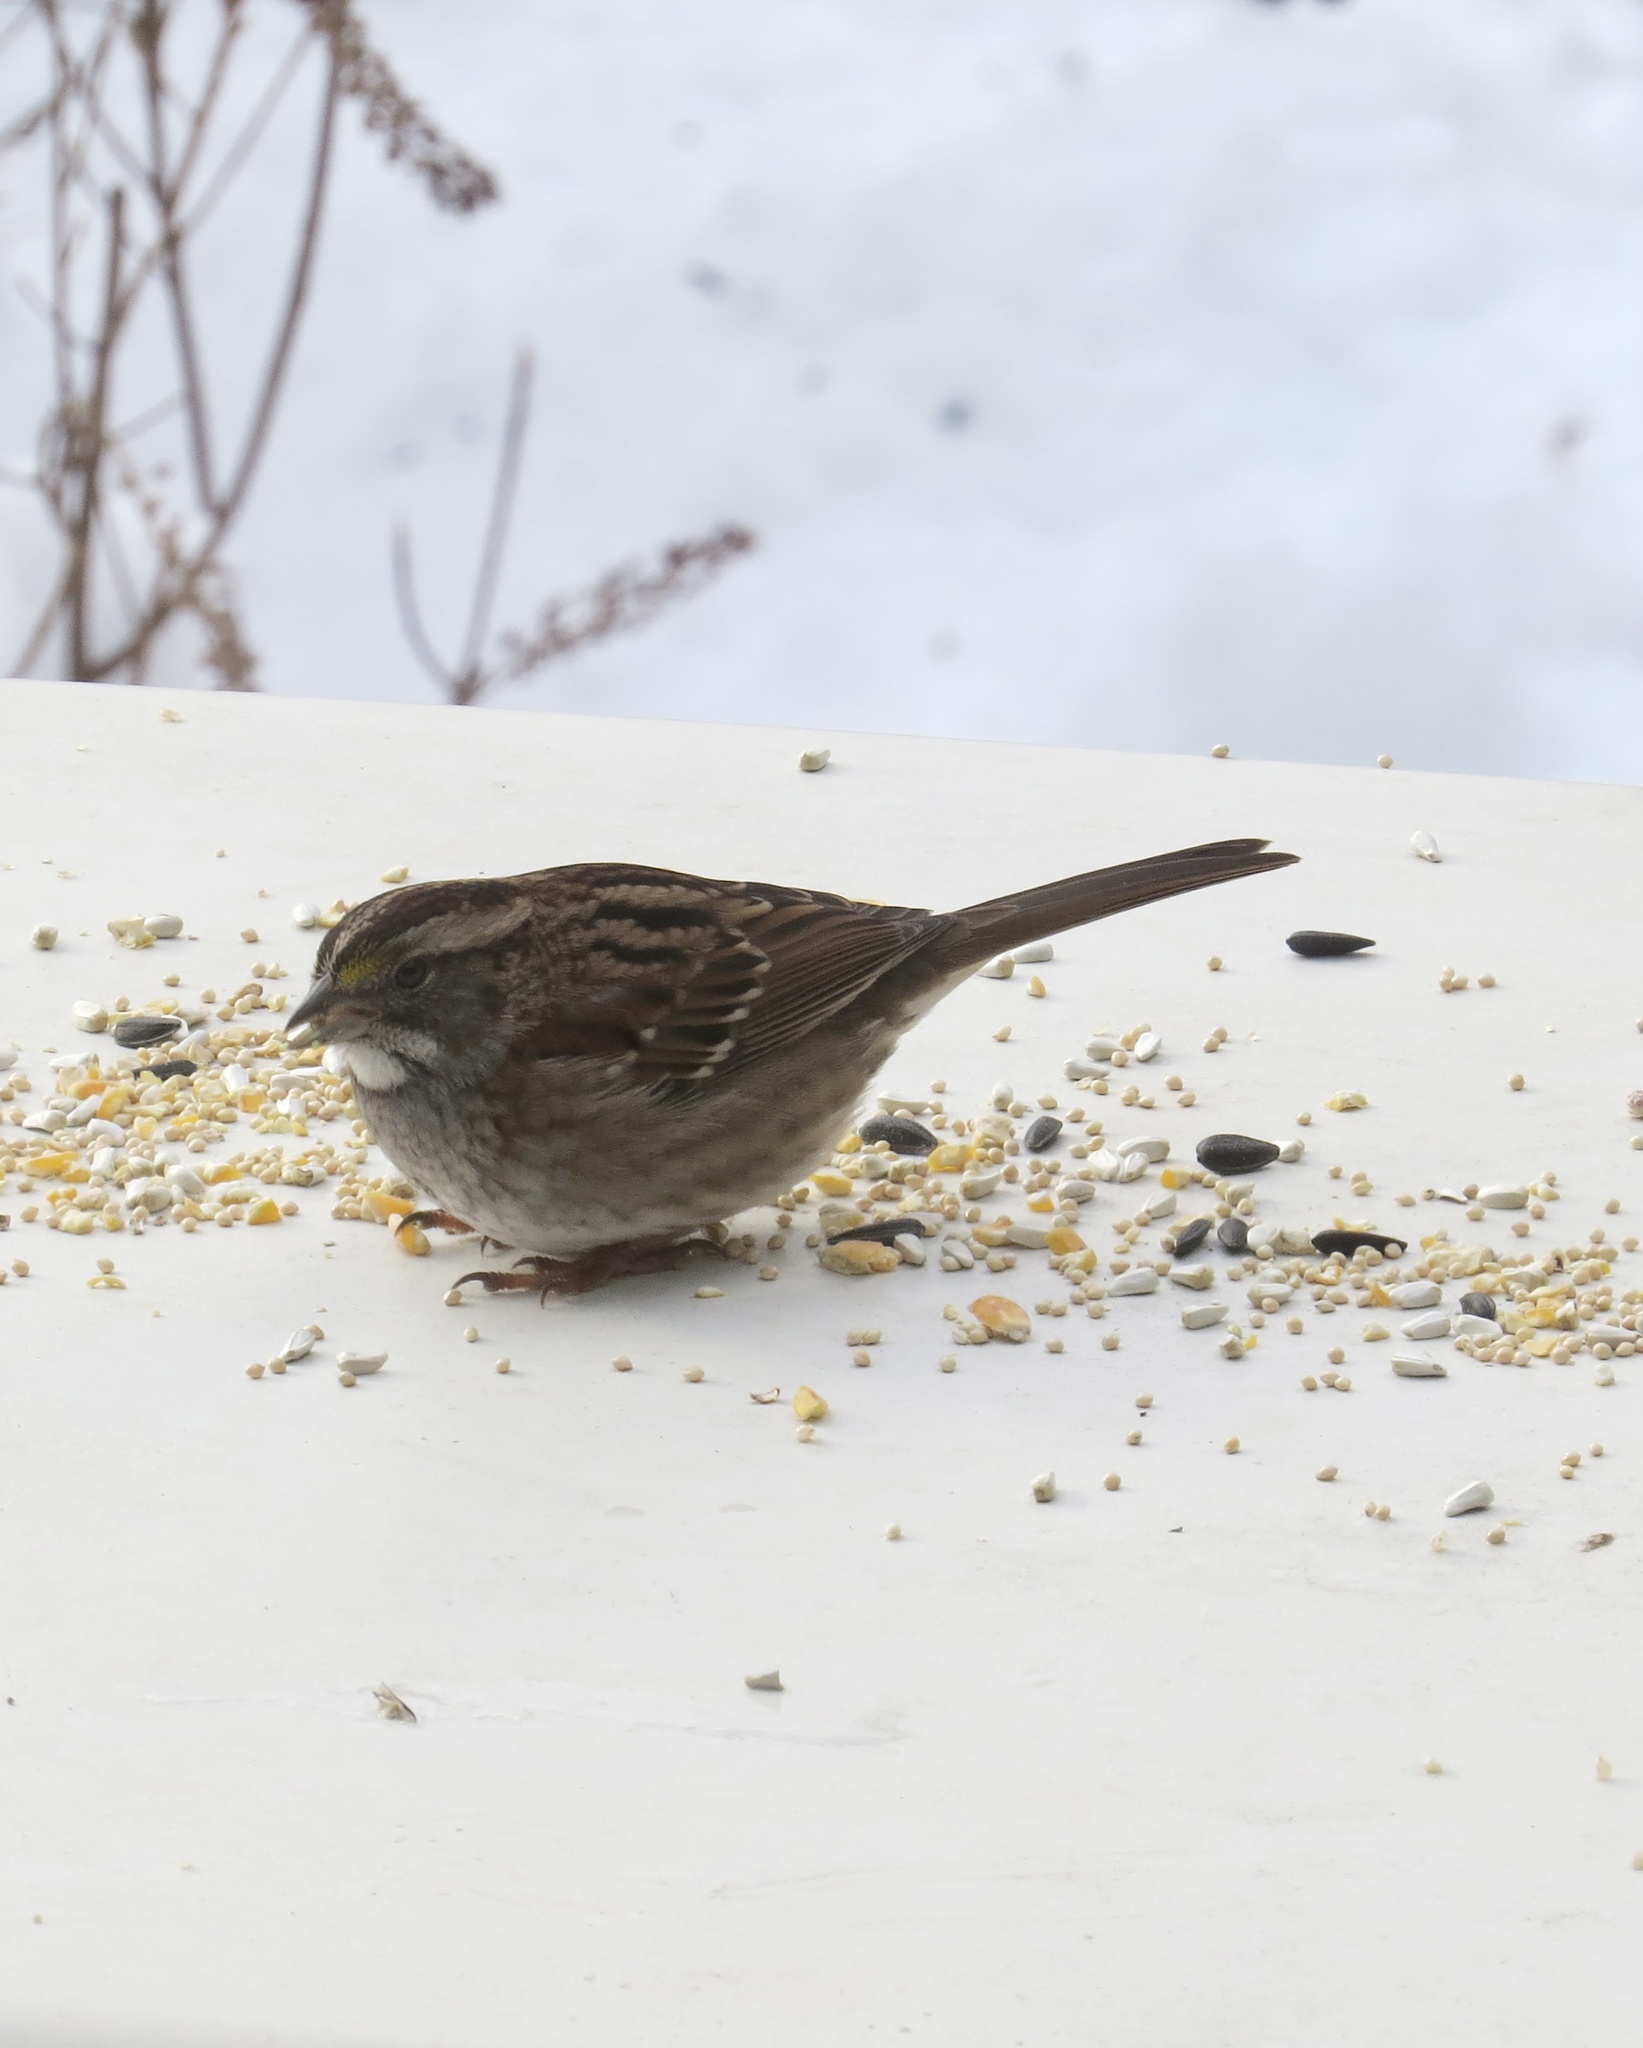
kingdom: Animalia
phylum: Chordata
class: Aves
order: Passeriformes
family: Passerellidae
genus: Zonotrichia
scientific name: Zonotrichia albicollis
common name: White-throated sparrow
